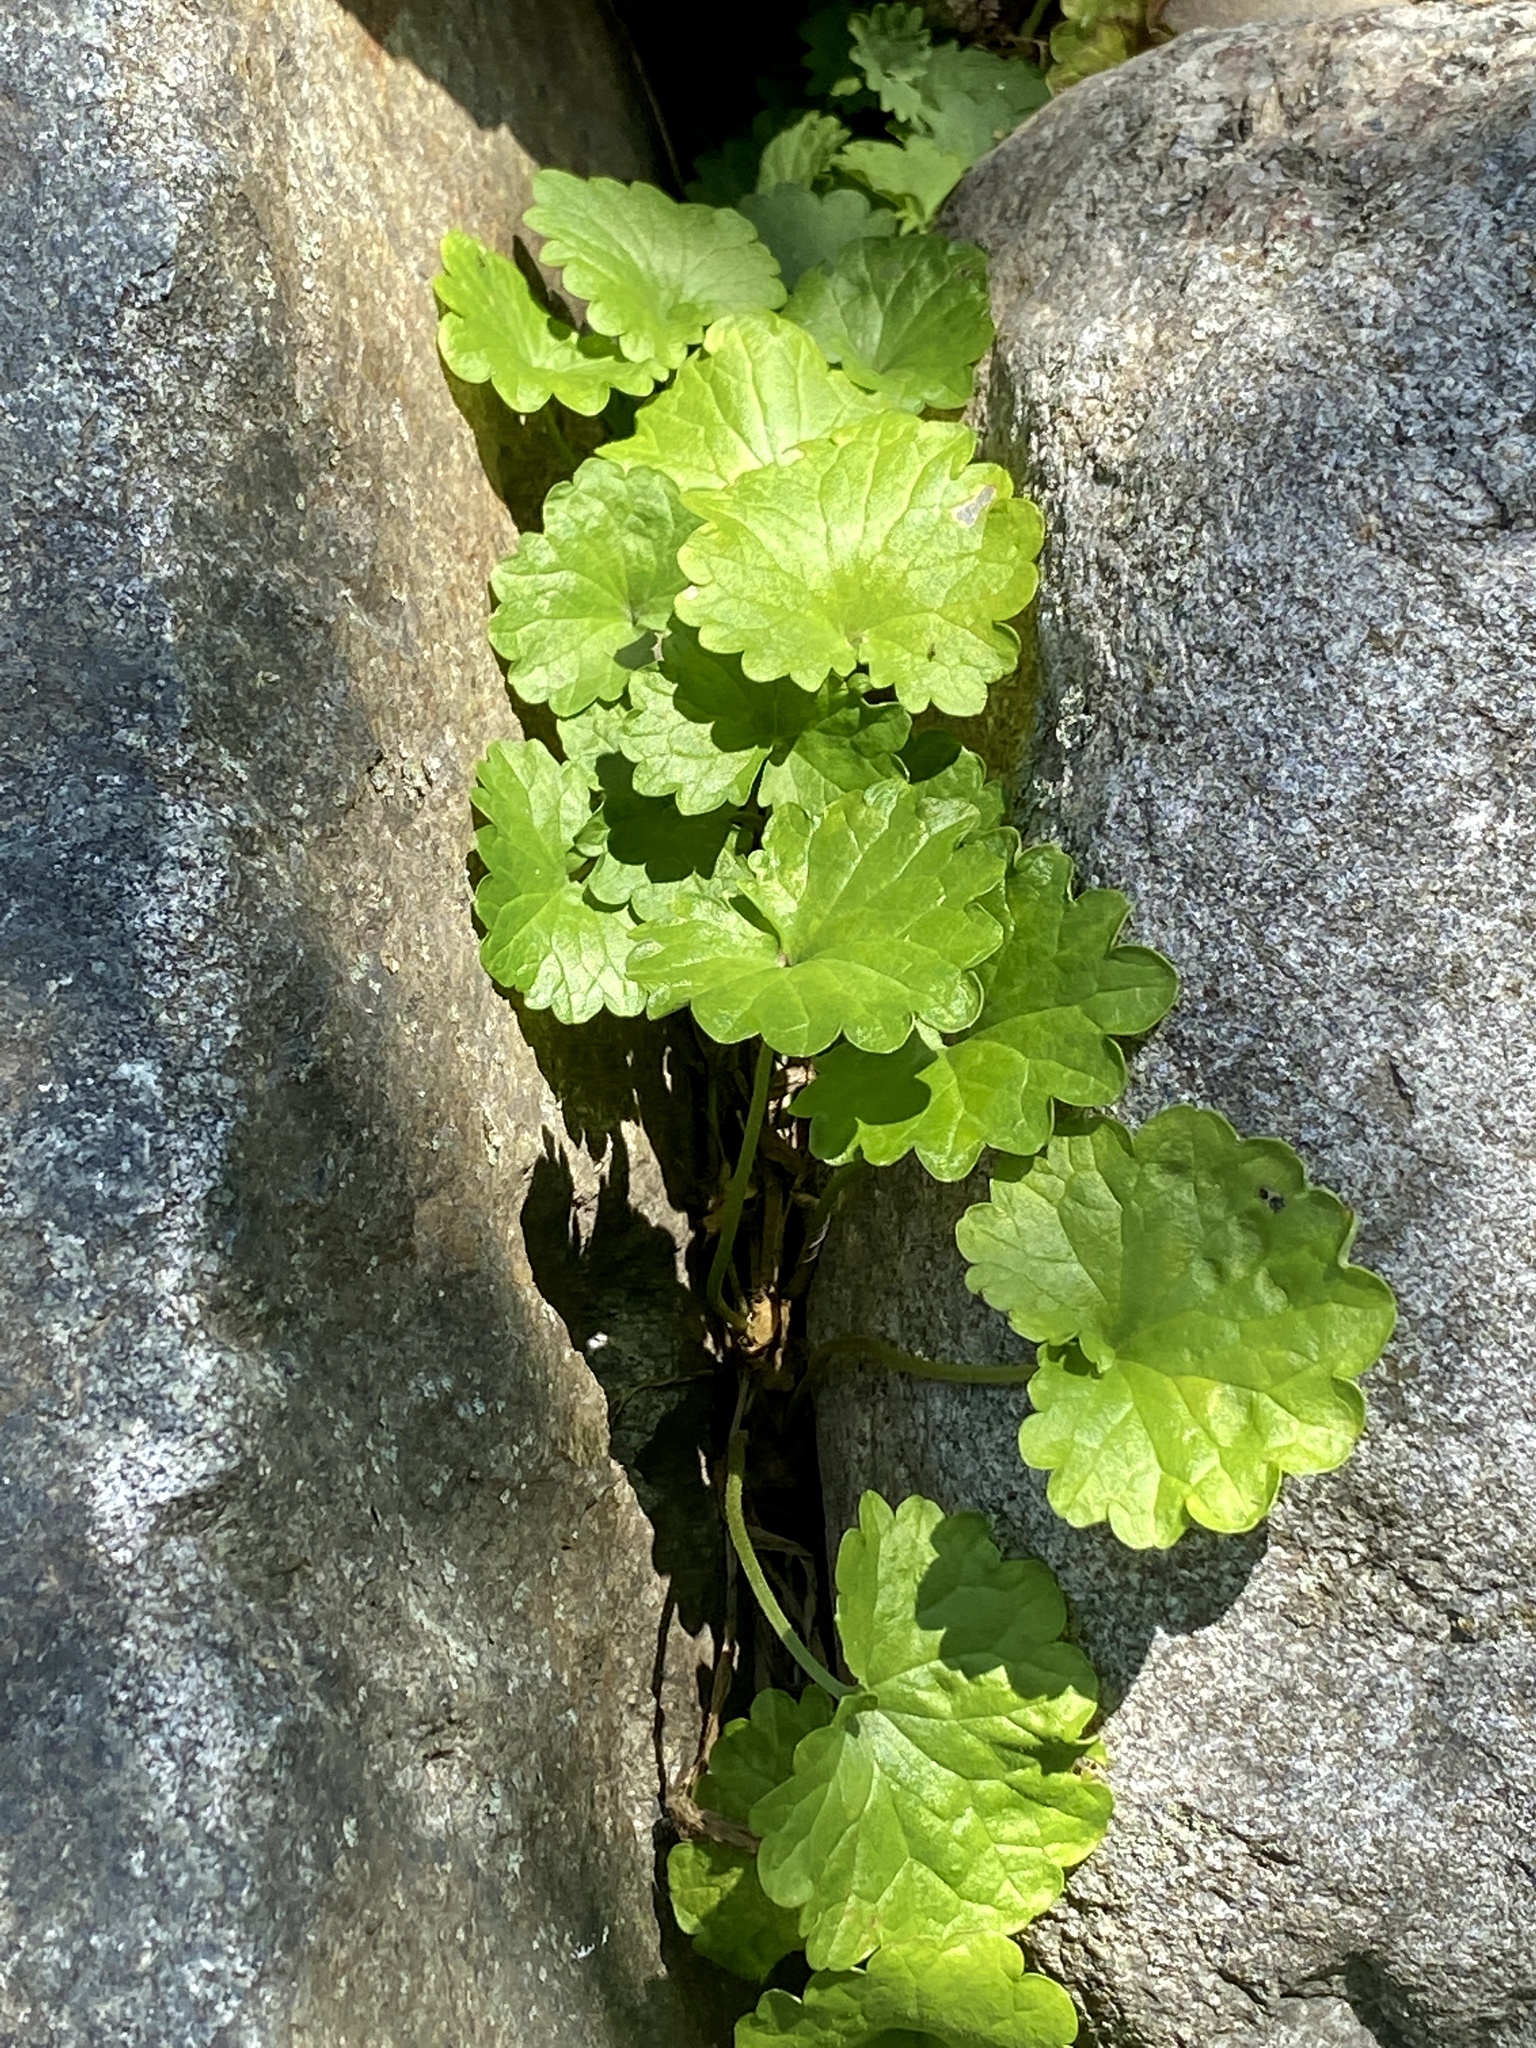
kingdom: Plantae
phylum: Tracheophyta
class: Magnoliopsida
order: Lamiales
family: Lamiaceae
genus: Glechoma
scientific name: Glechoma hederacea
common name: Ground ivy
